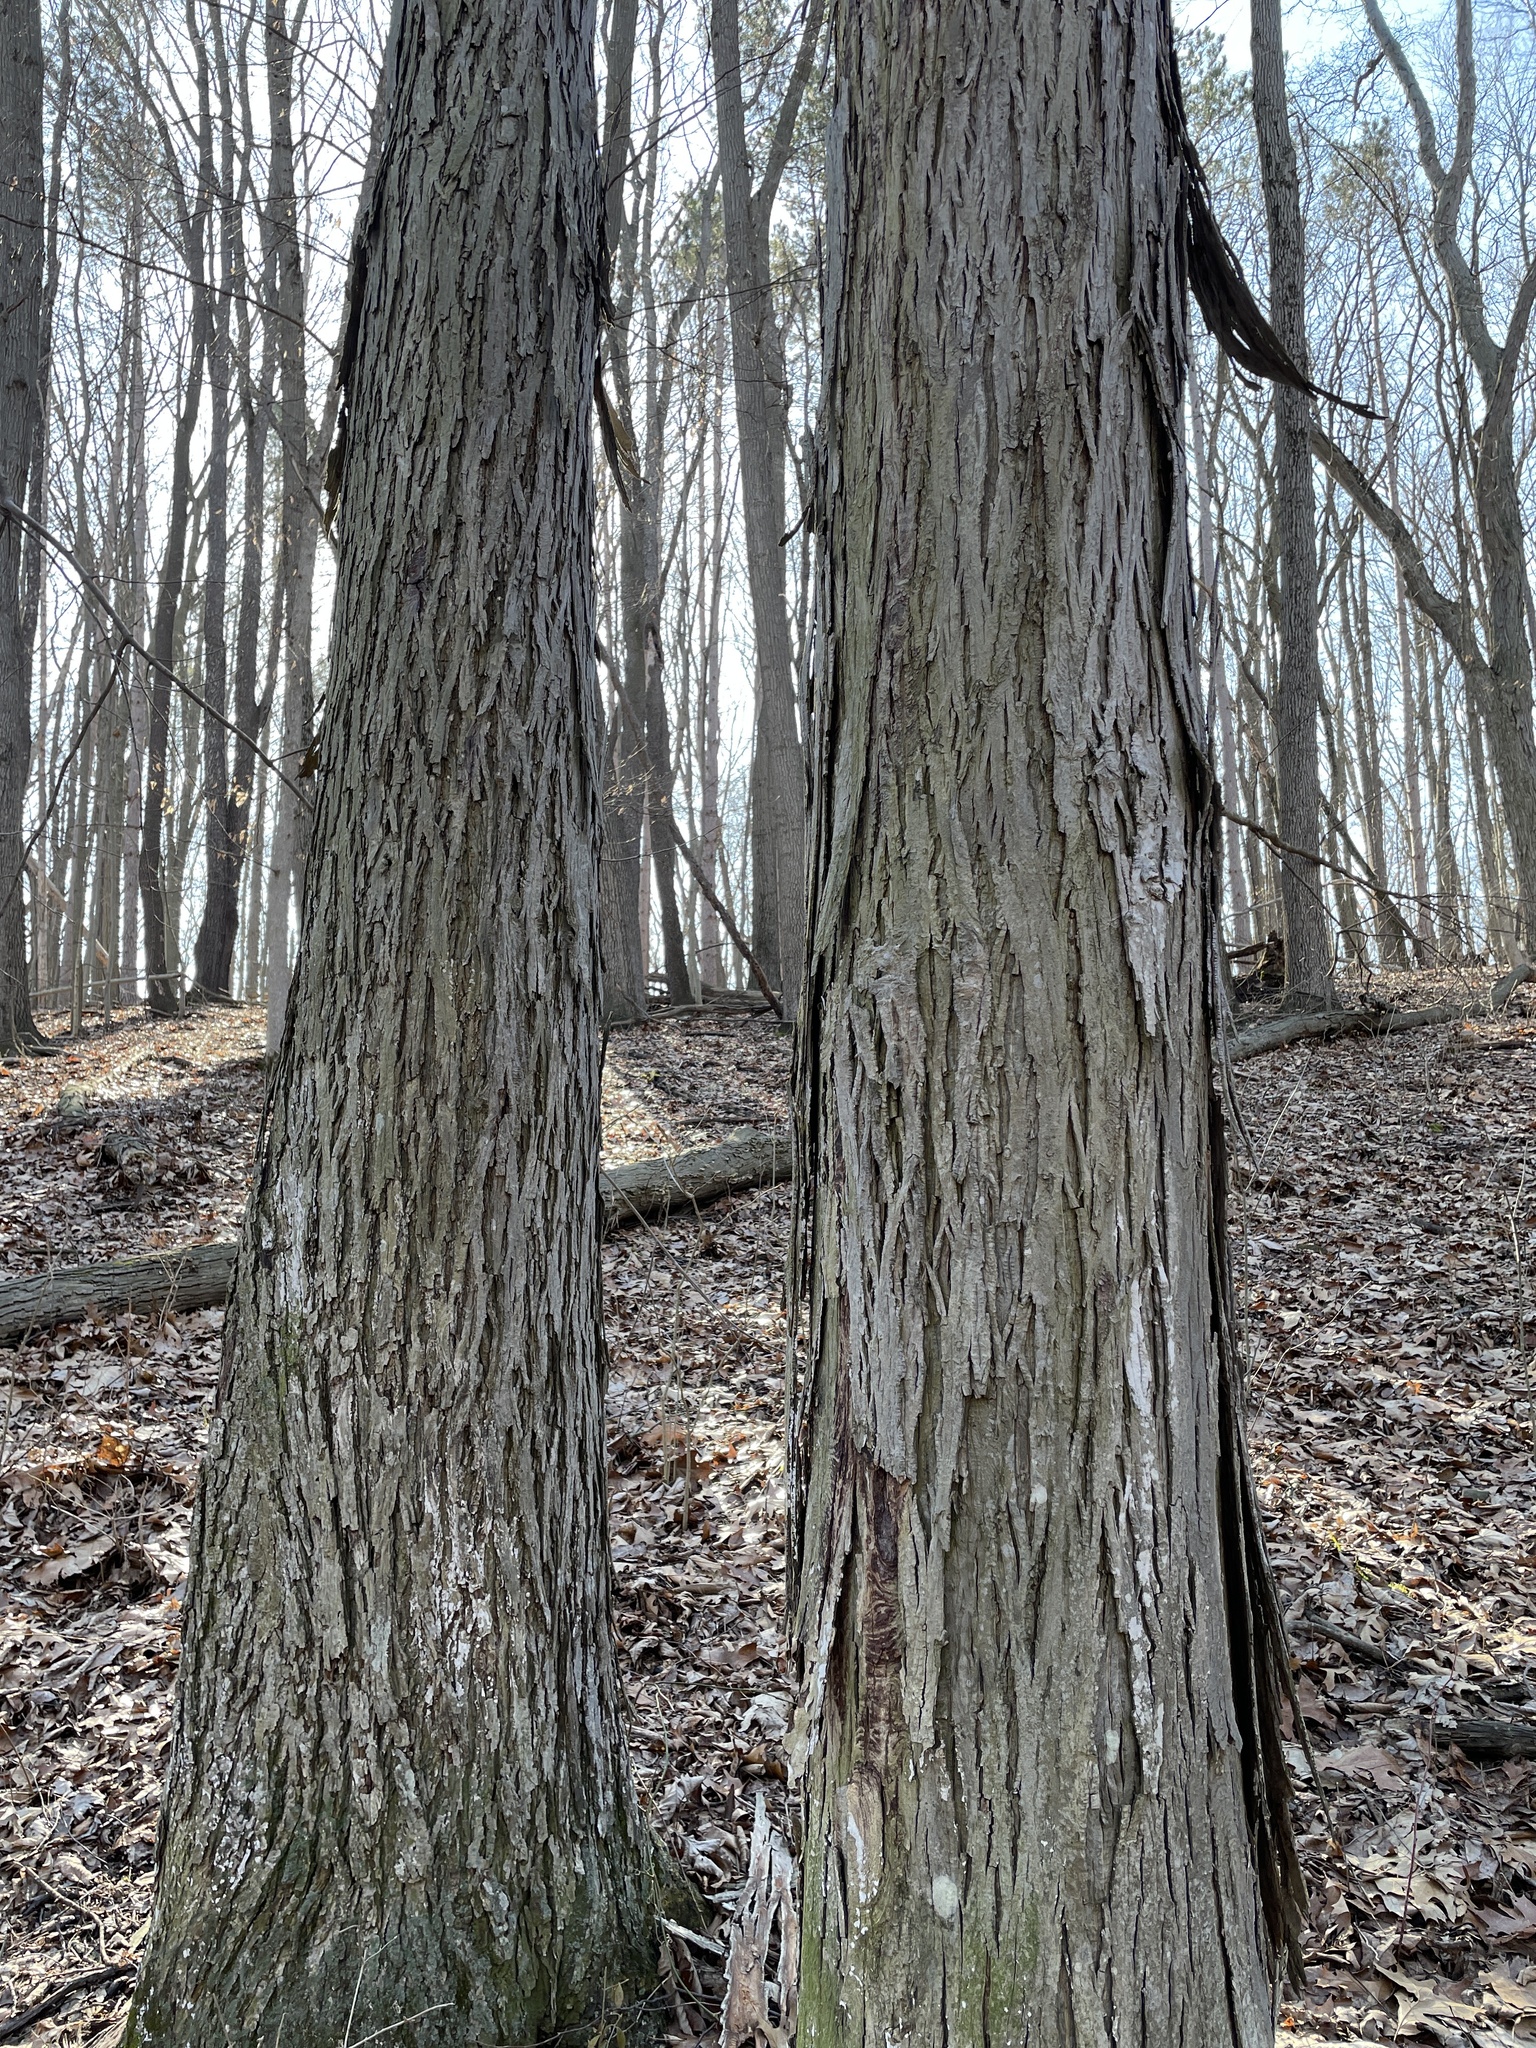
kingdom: Plantae
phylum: Tracheophyta
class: Magnoliopsida
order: Fagales
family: Juglandaceae
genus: Carya
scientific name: Carya ovata
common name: Shagbark hickory
